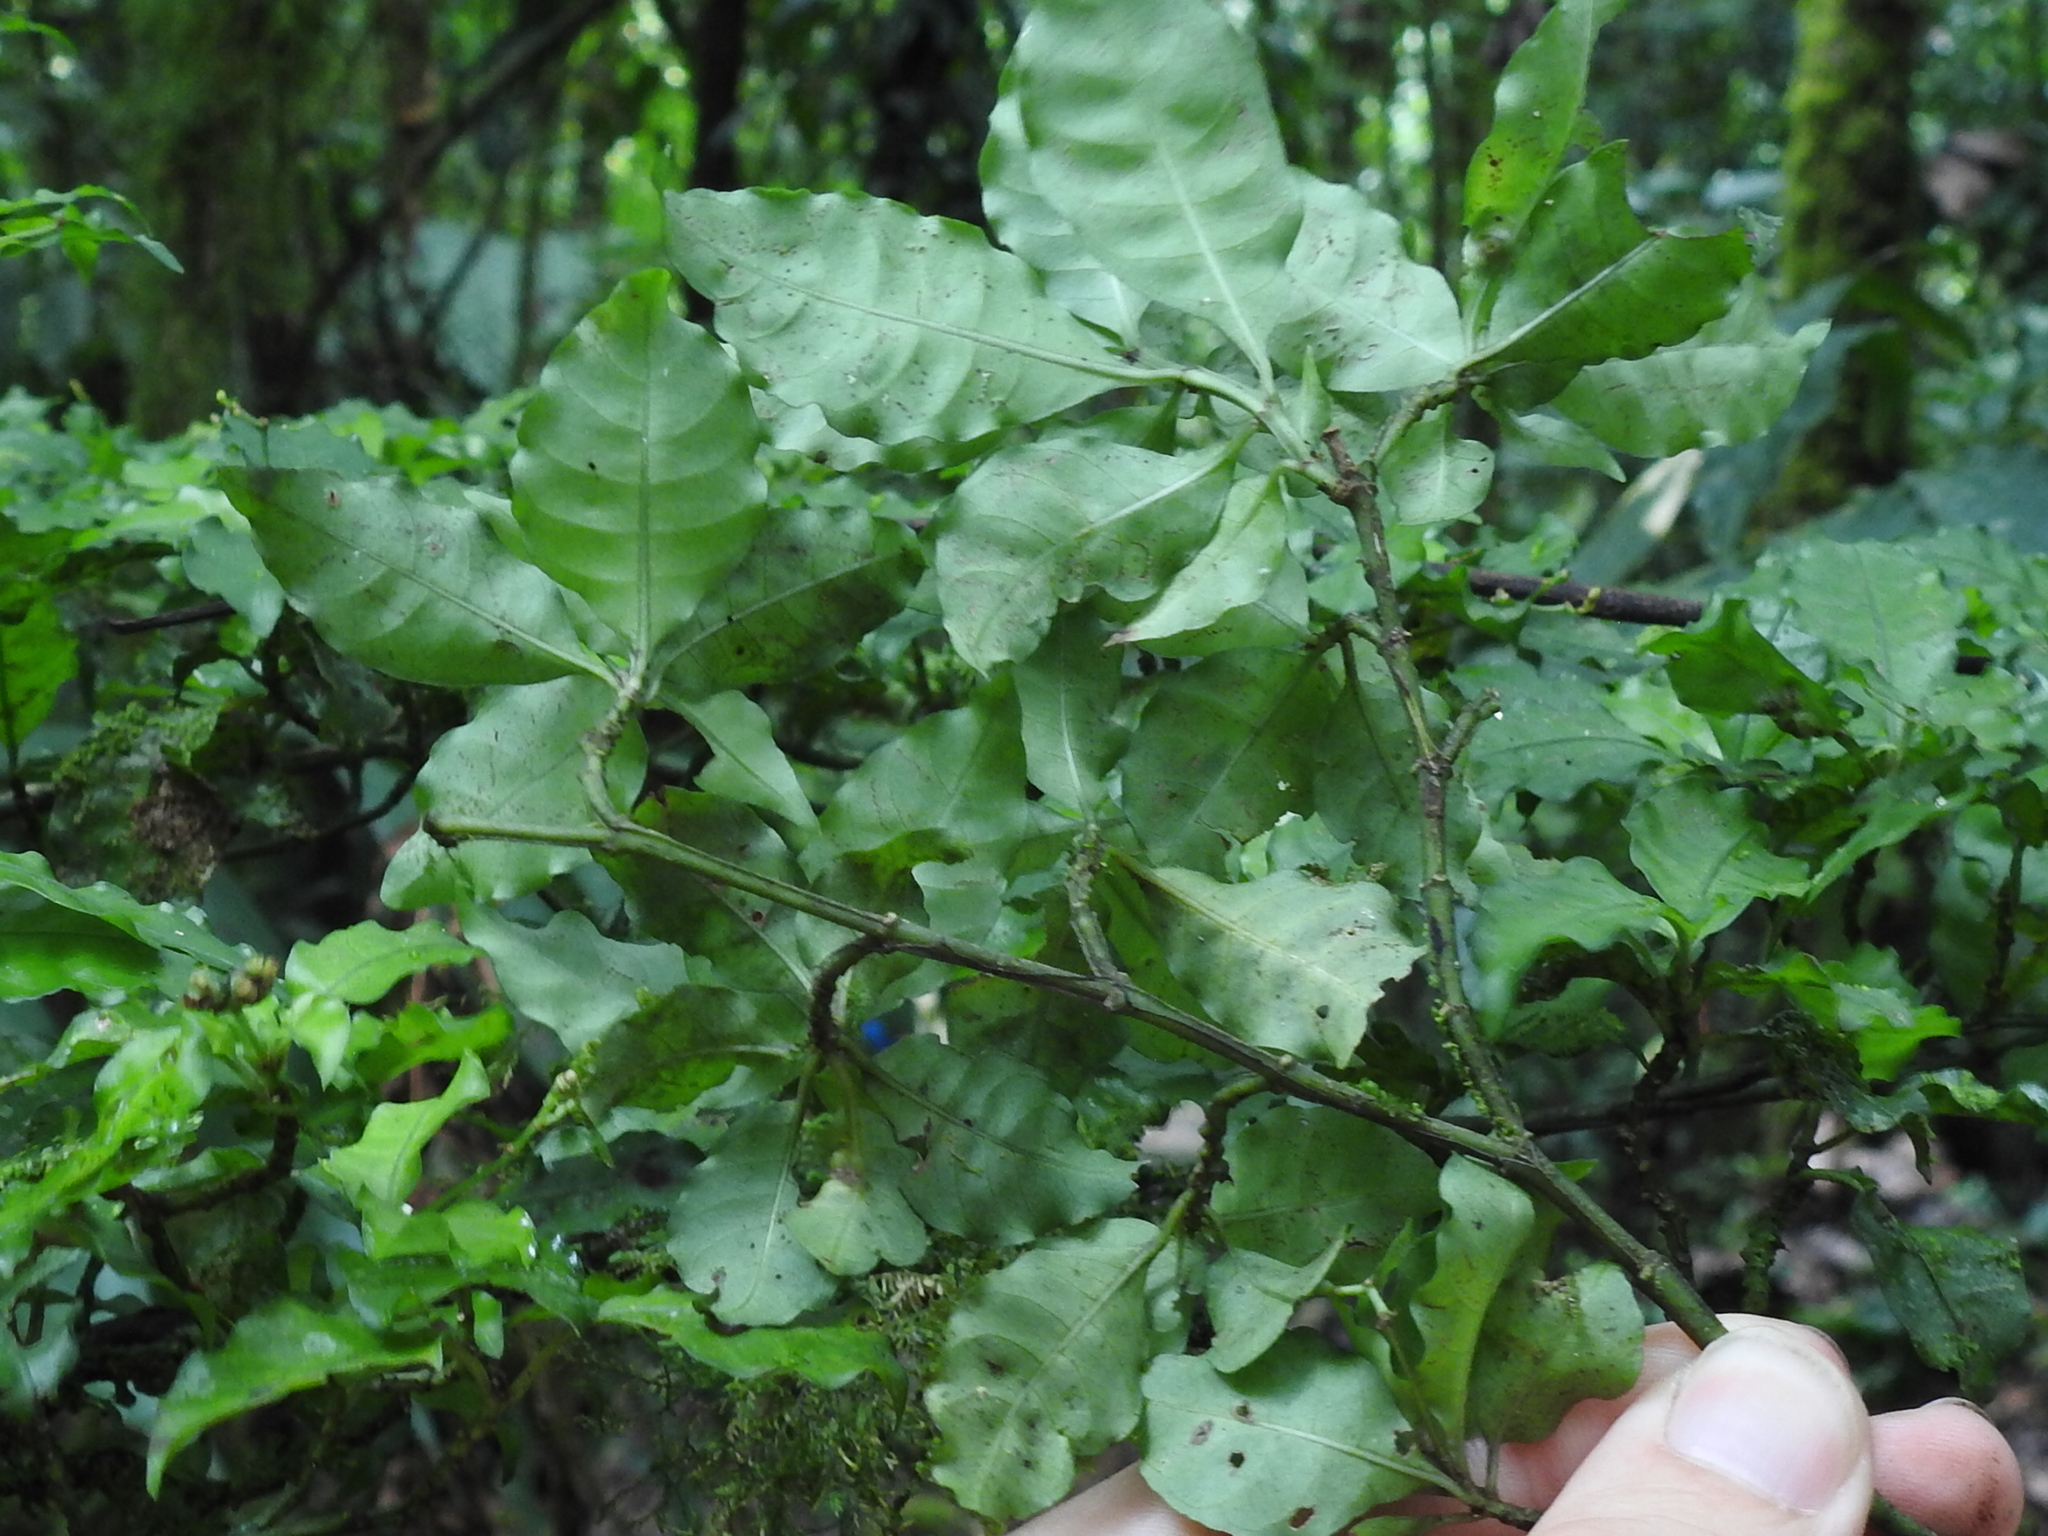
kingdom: Plantae
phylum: Tracheophyta
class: Magnoliopsida
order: Gentianales
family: Rubiaceae
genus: Psychotria
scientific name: Psychotria biaristata
